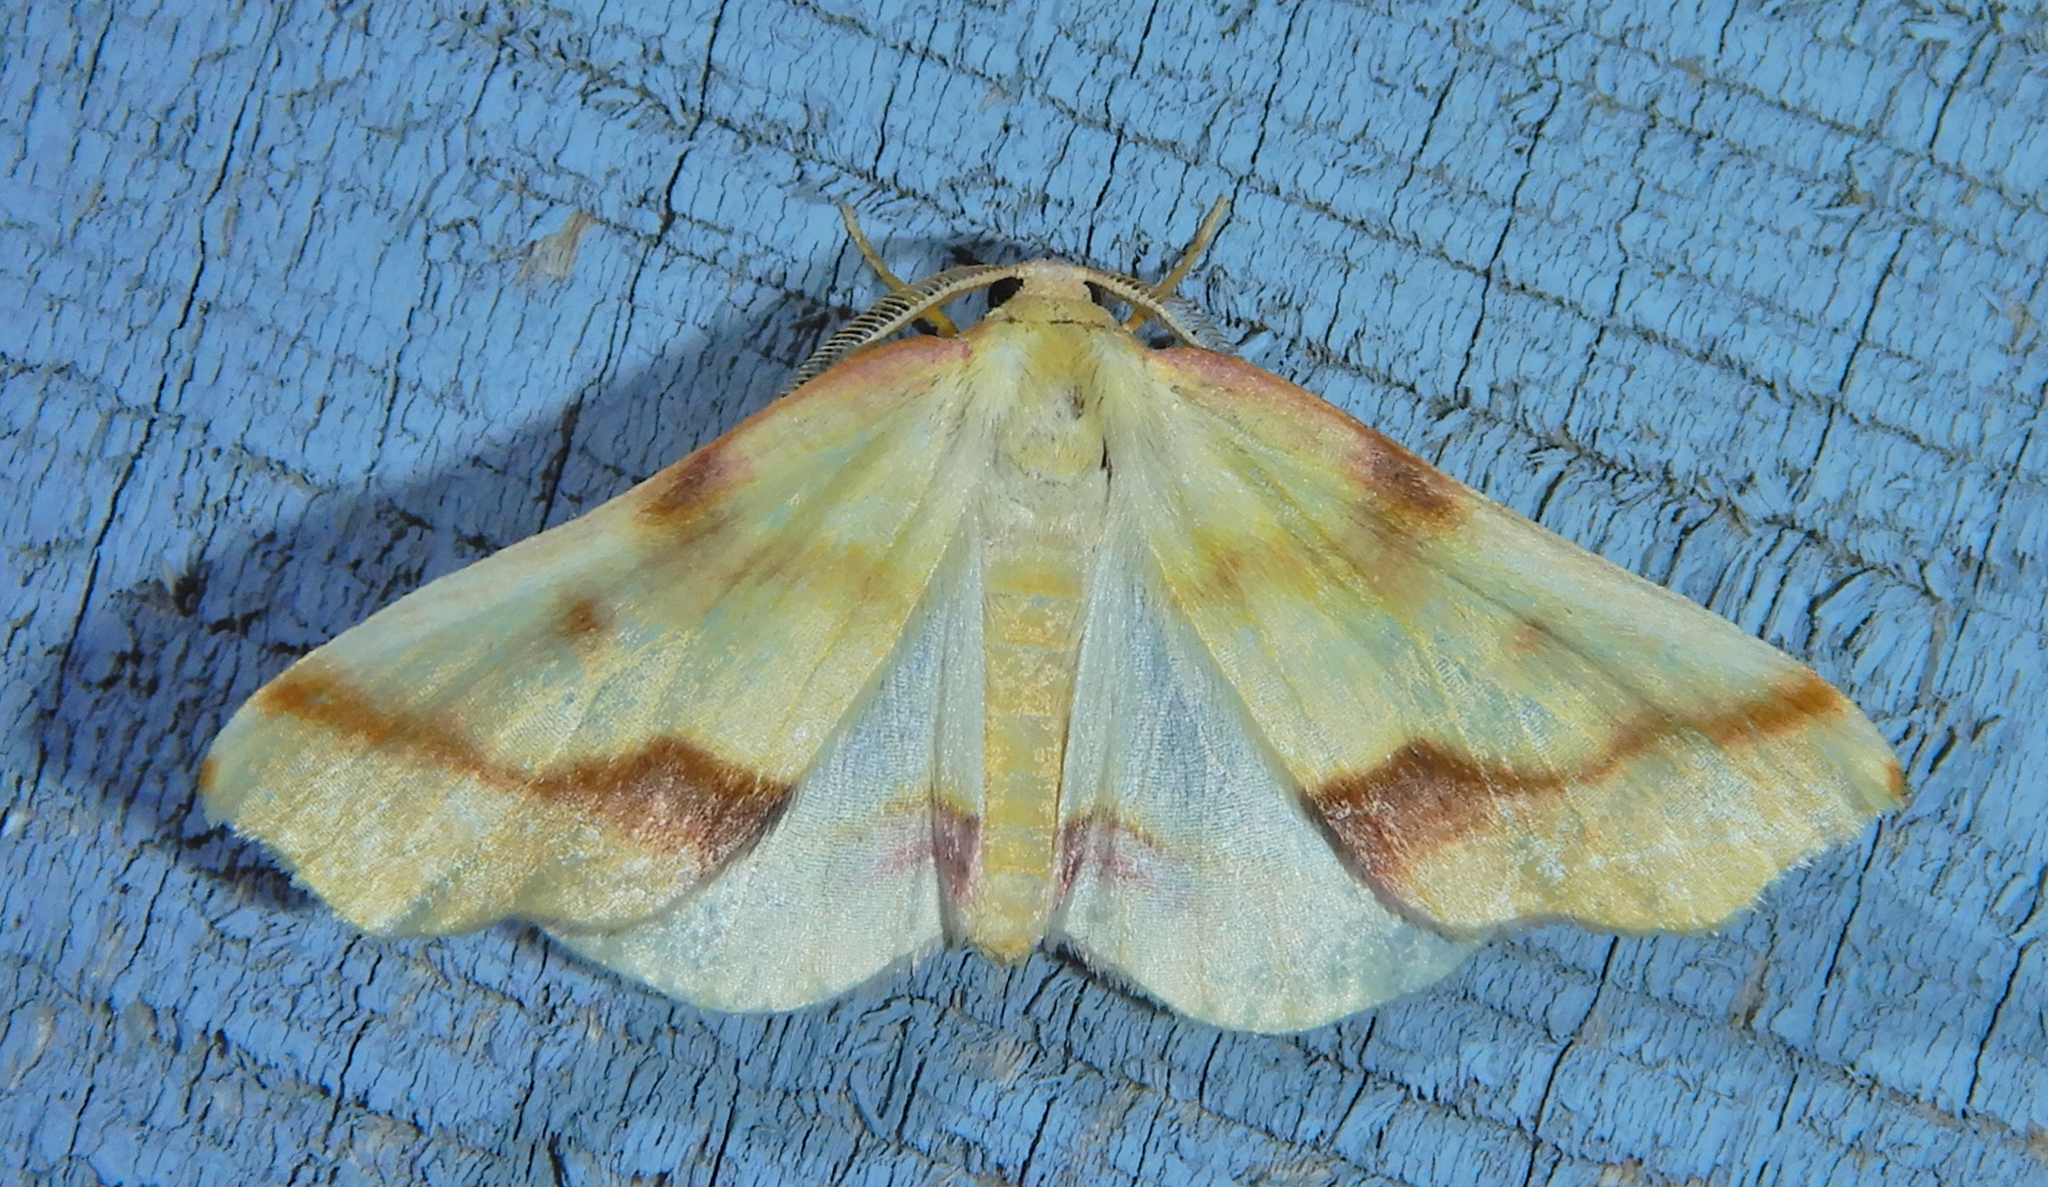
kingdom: Animalia
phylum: Arthropoda
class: Insecta
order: Lepidoptera
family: Geometridae
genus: Plagodis
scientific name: Plagodis serinaria
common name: Lemon plagodis
